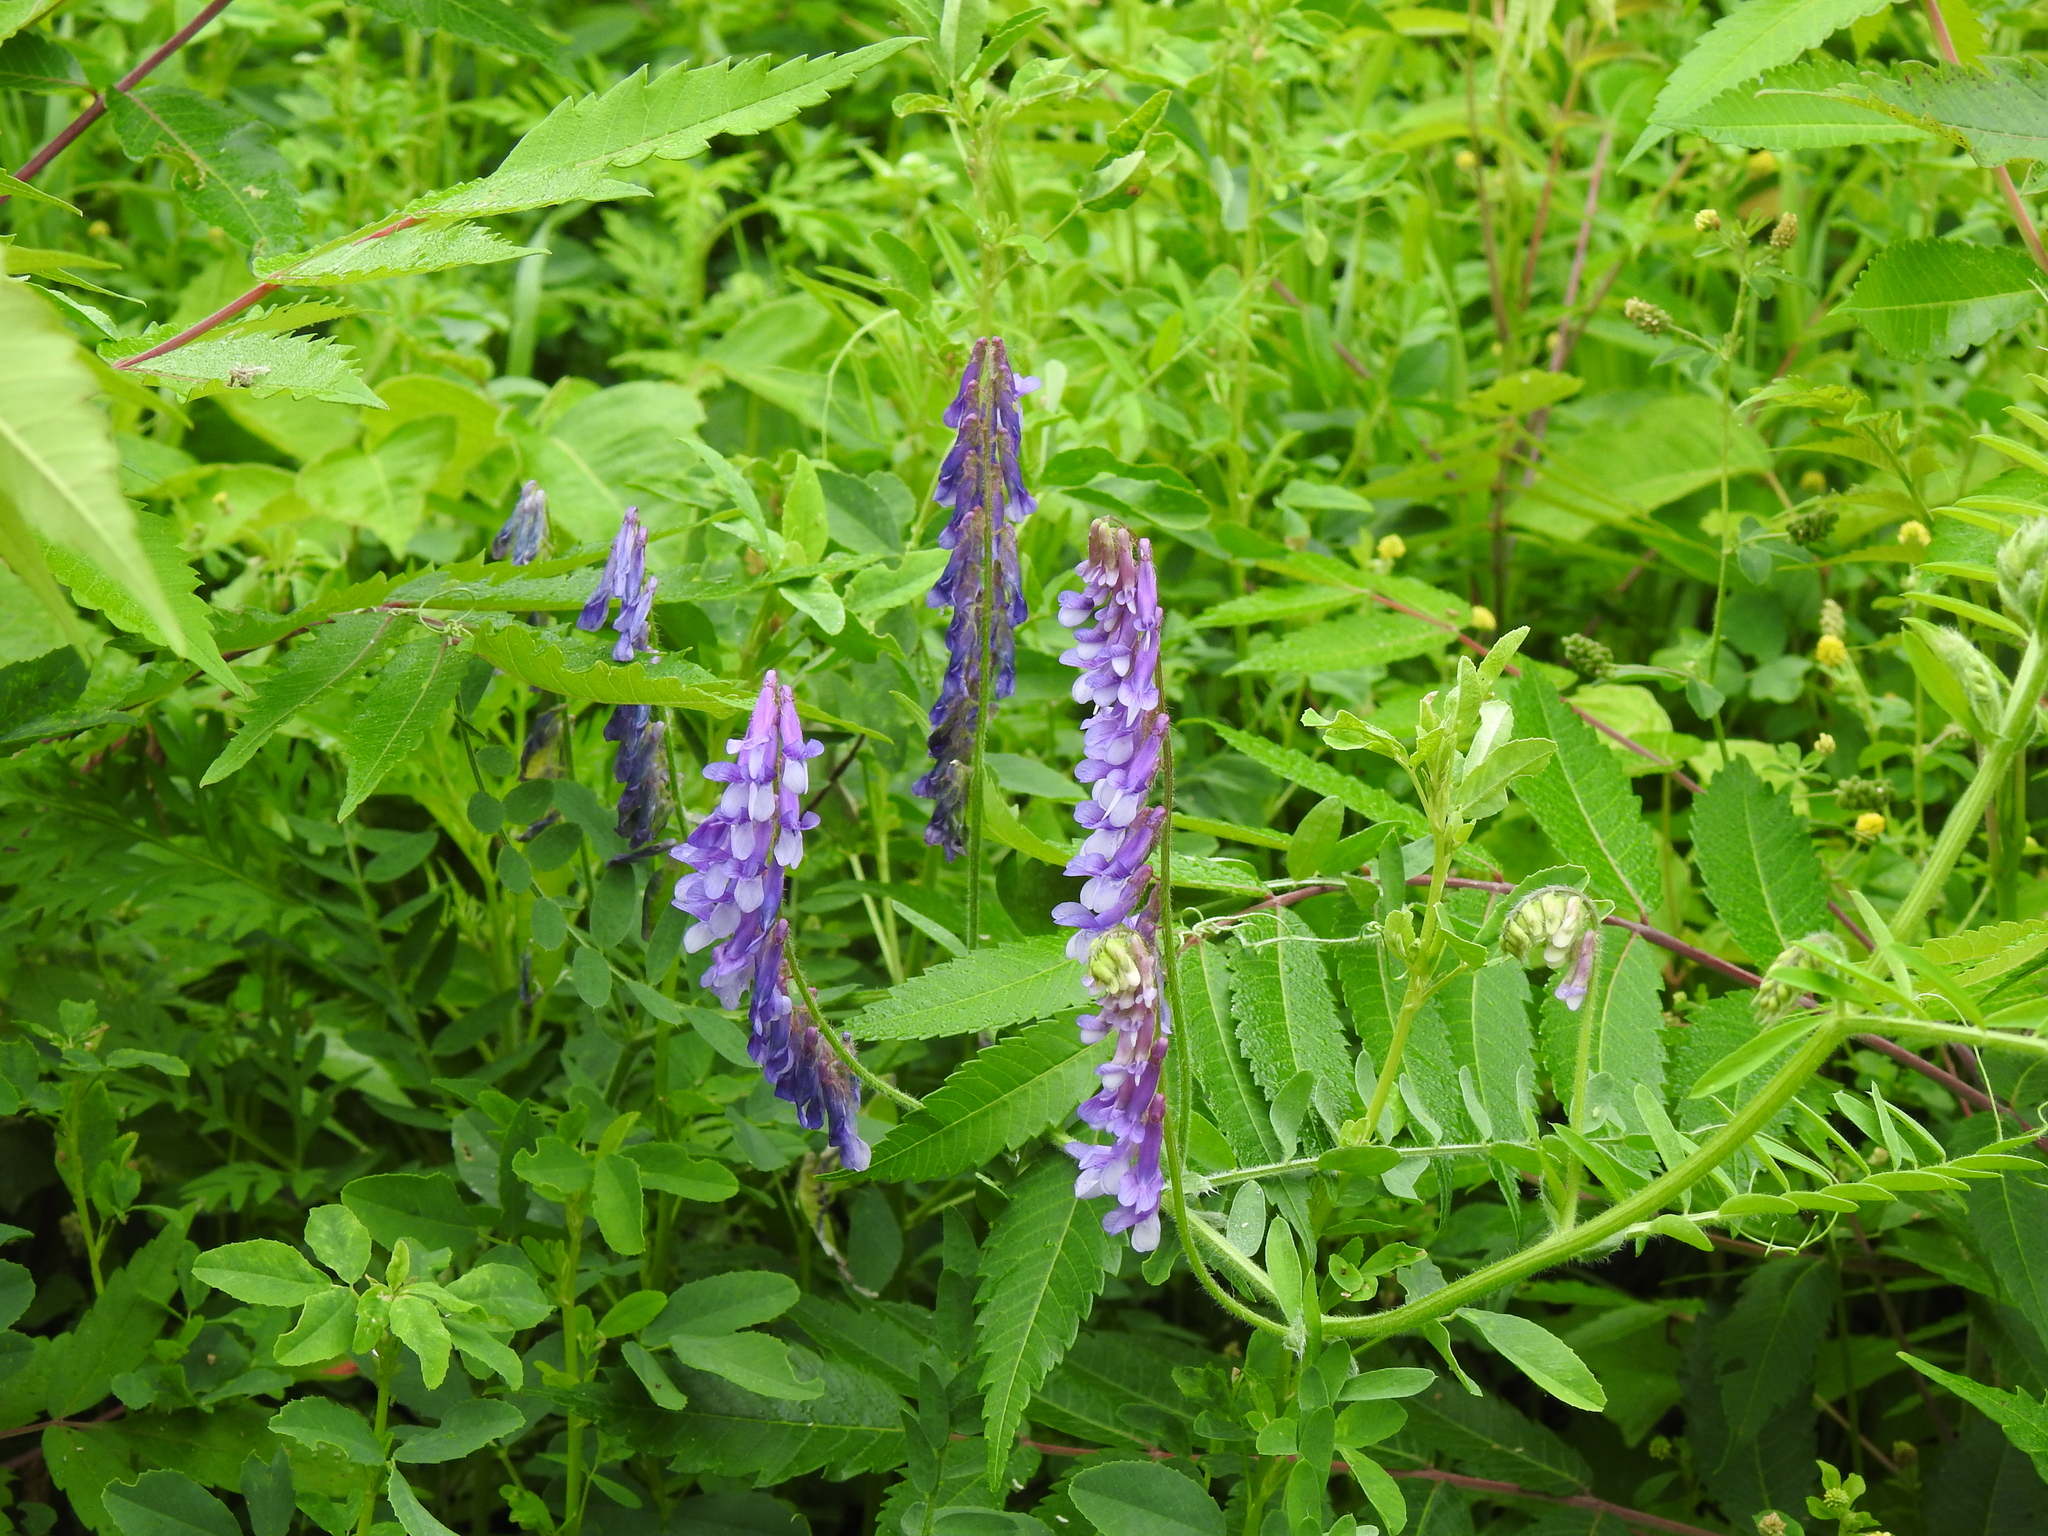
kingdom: Plantae
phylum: Tracheophyta
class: Magnoliopsida
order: Fabales
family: Fabaceae
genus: Vicia
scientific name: Vicia villosa
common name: Fodder vetch
